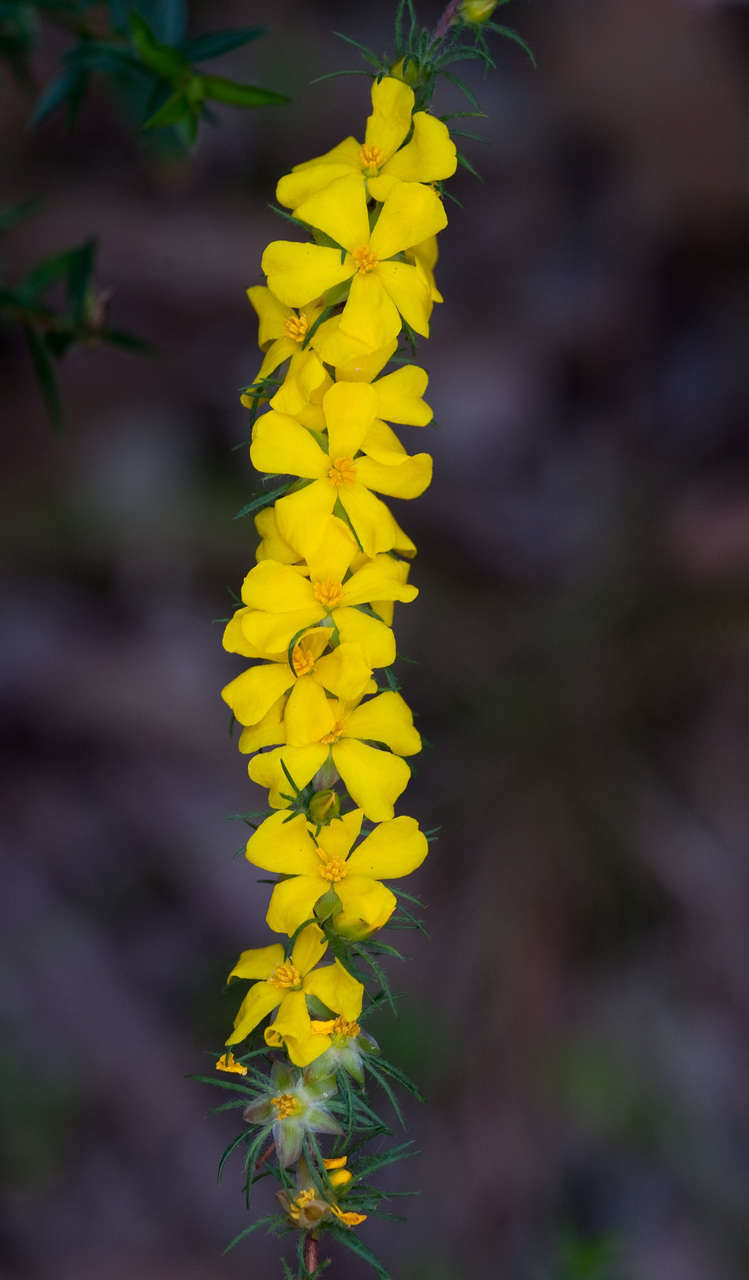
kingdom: Plantae
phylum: Tracheophyta
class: Magnoliopsida
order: Dilleniales
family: Dilleniaceae
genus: Hibbertia
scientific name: Hibbertia prostrata
